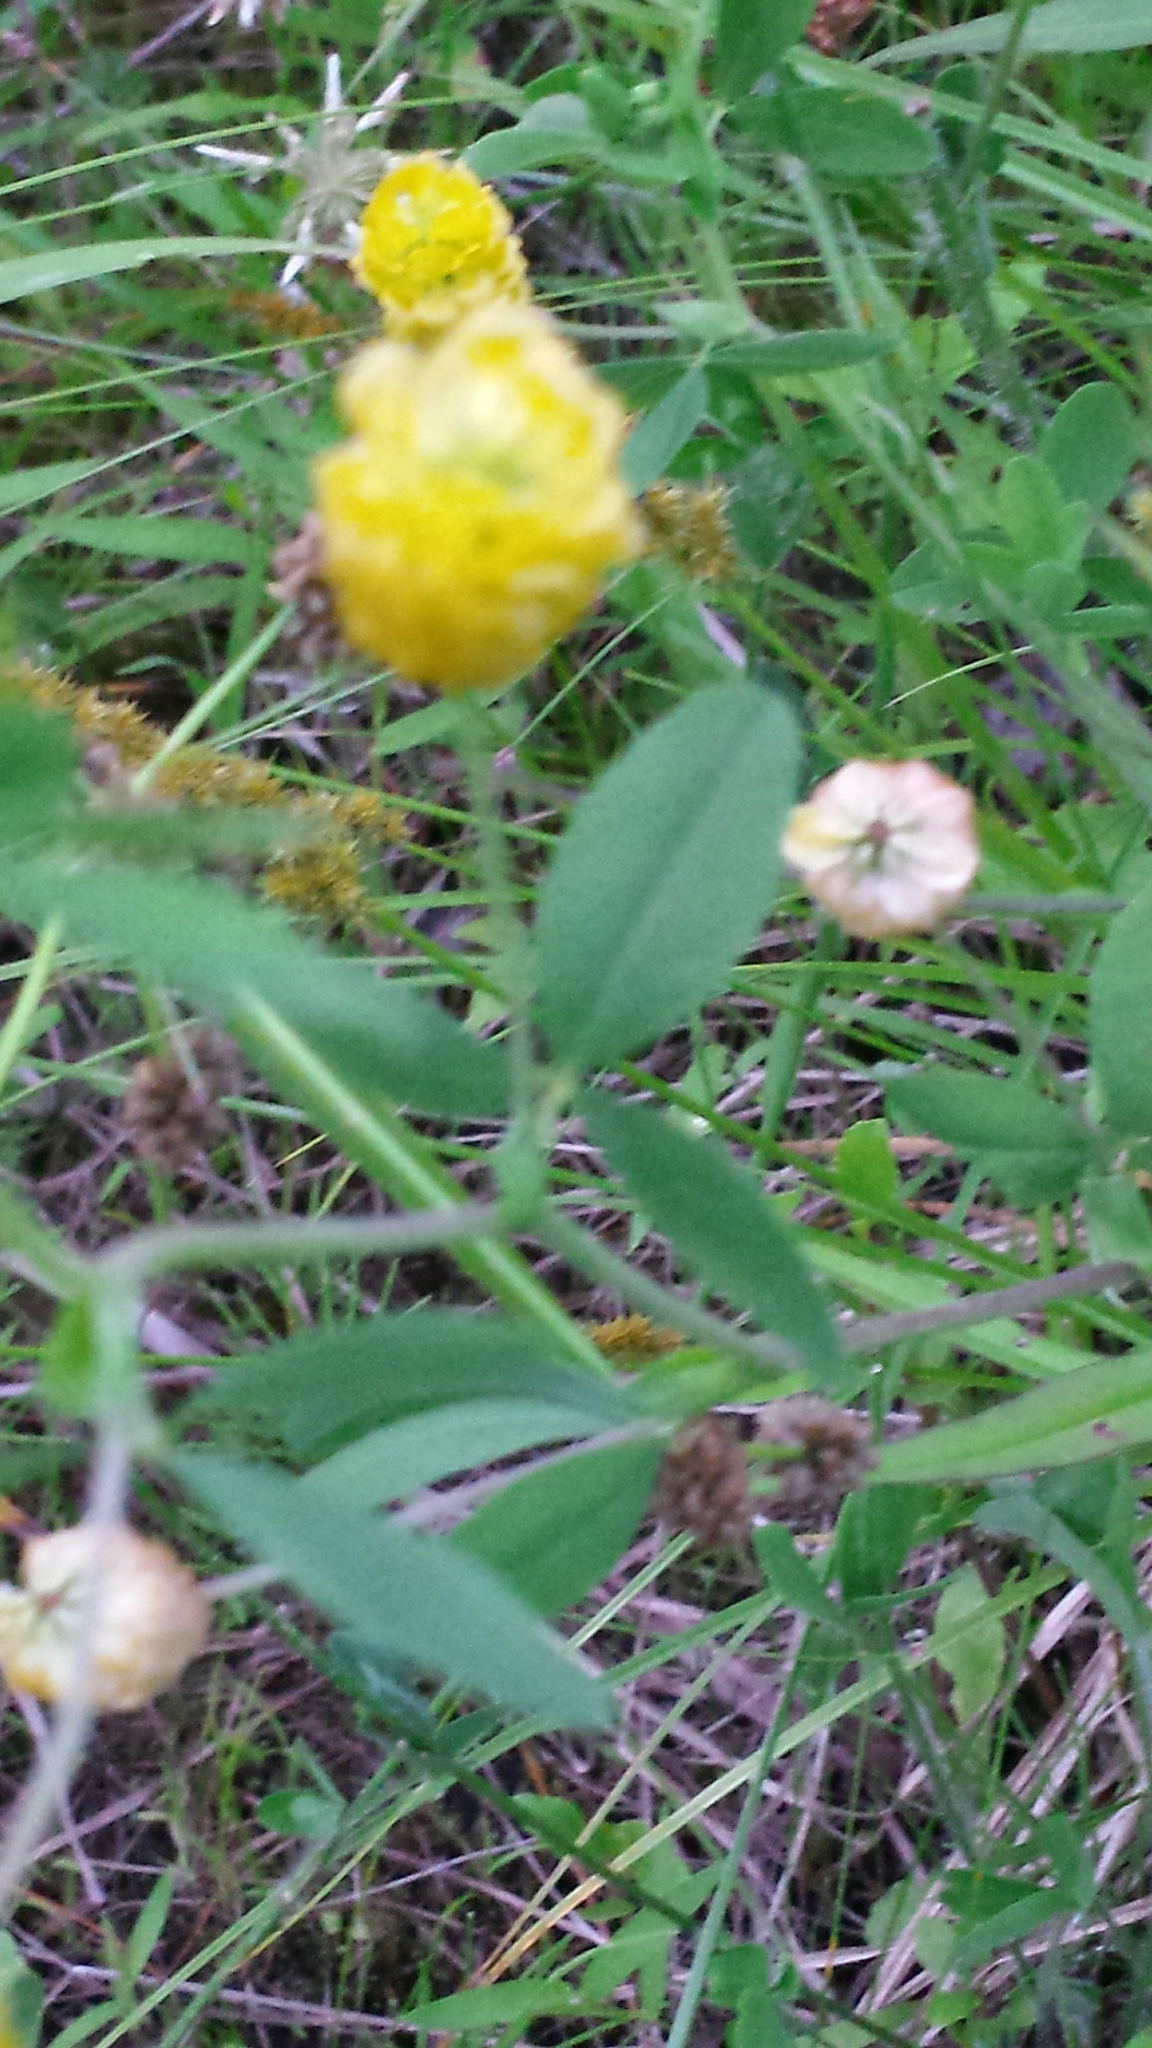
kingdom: Plantae
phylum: Tracheophyta
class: Magnoliopsida
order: Fabales
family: Fabaceae
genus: Trifolium
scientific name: Trifolium aureum
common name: Golden clover
